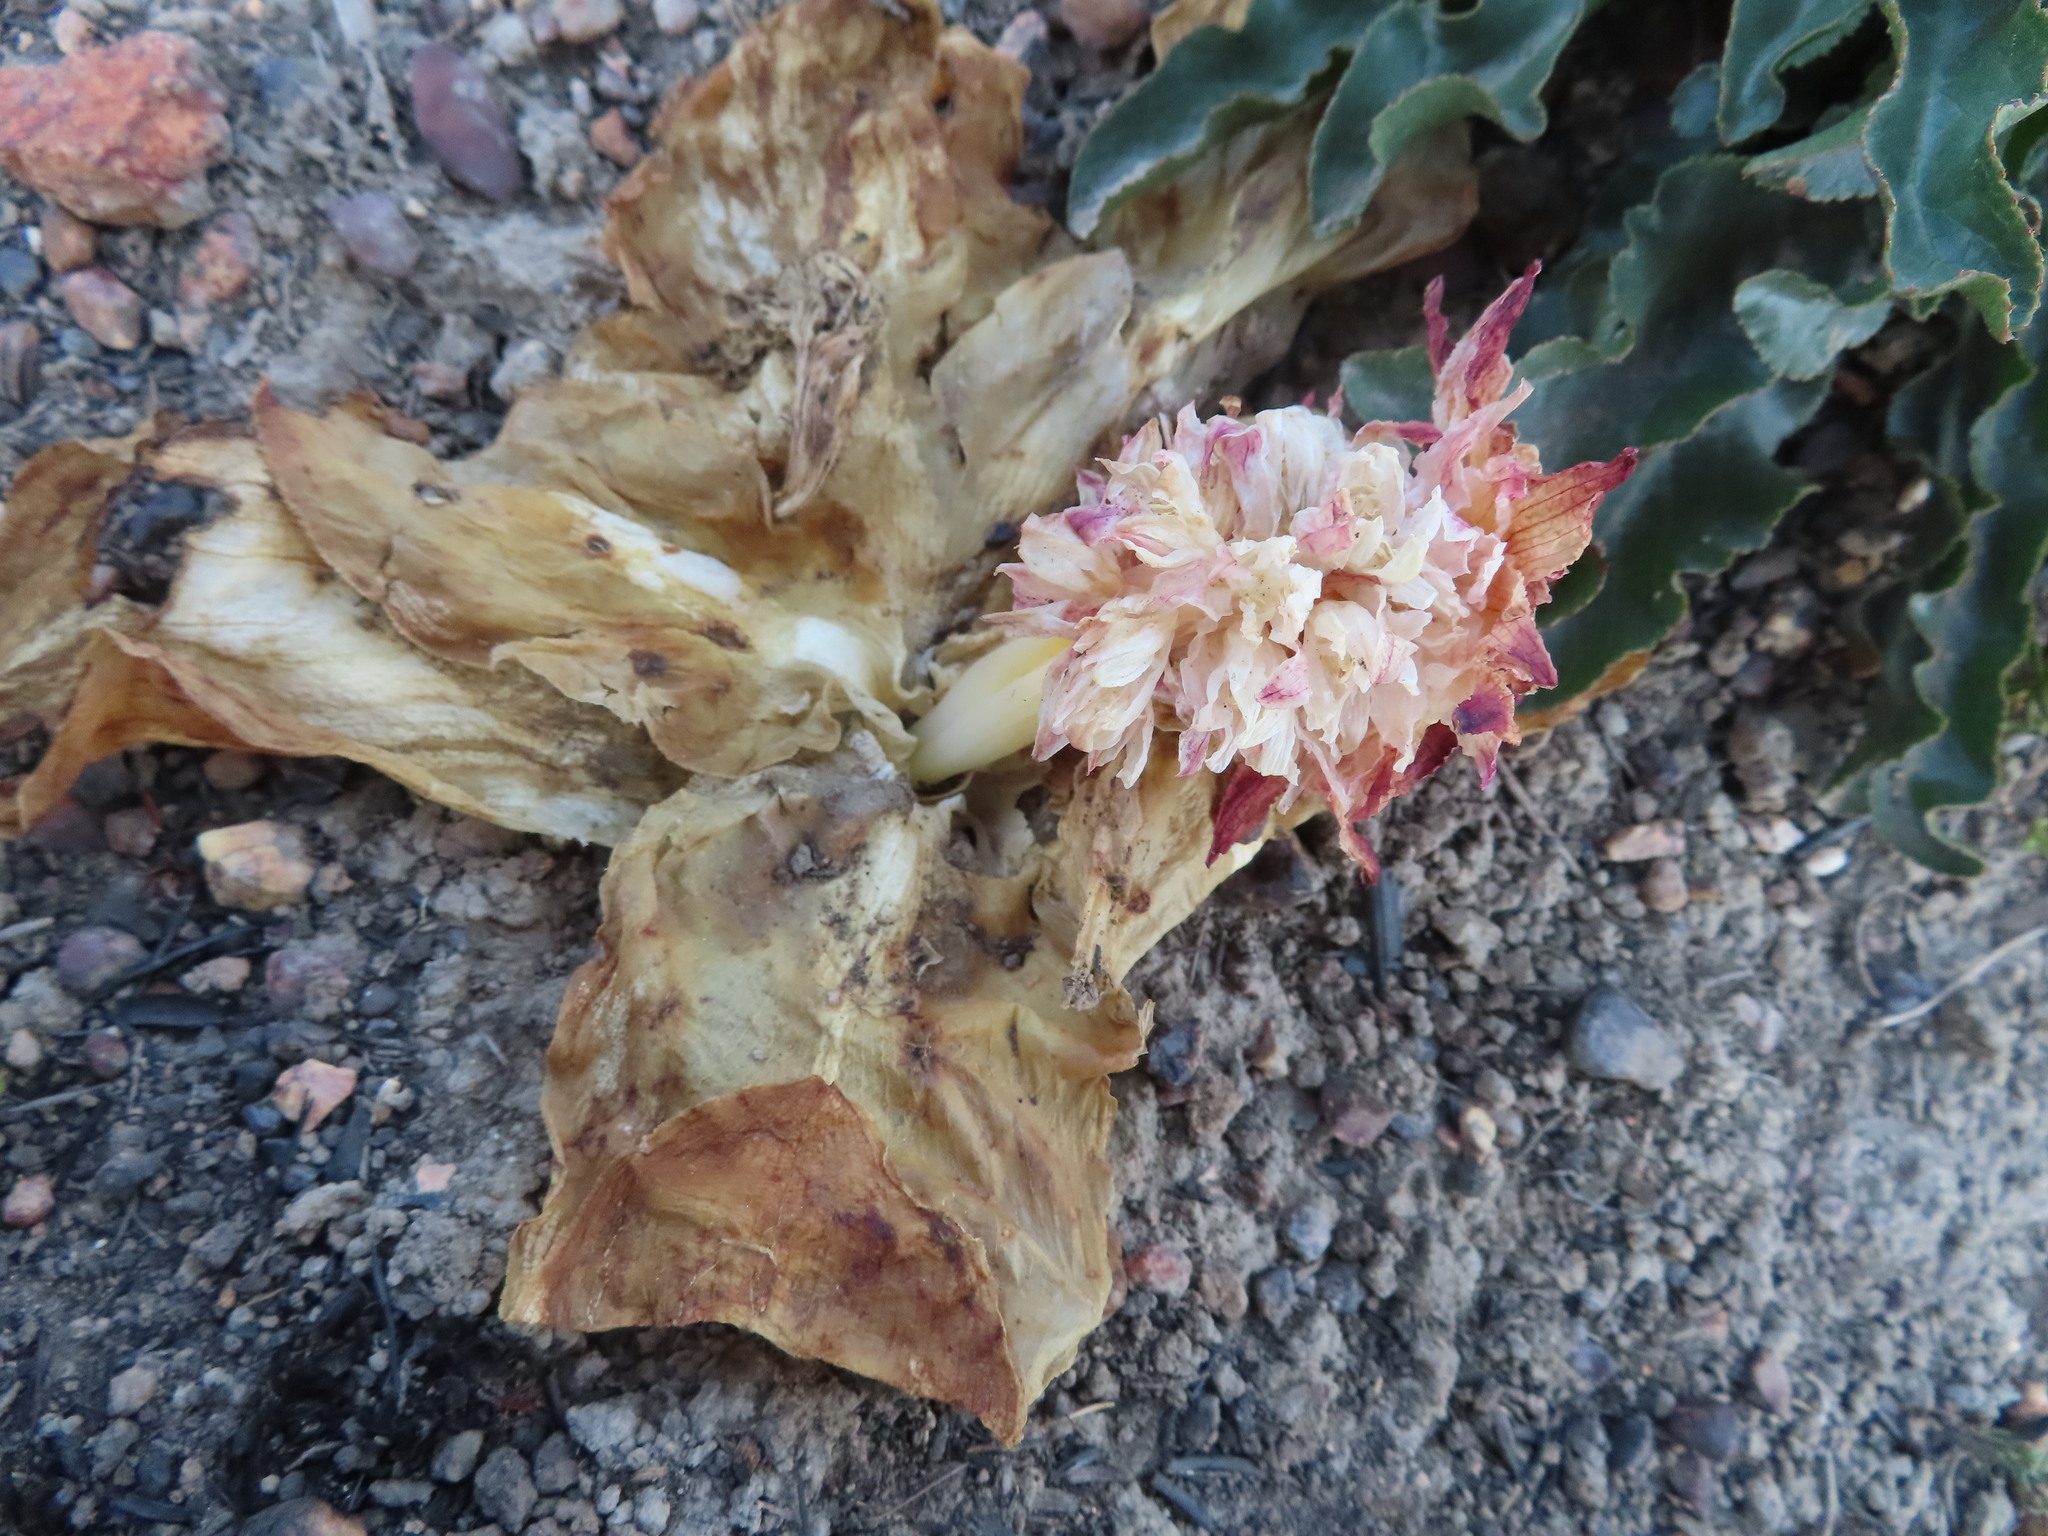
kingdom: Plantae
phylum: Tracheophyta
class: Liliopsida
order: Asparagales
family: Asparagaceae
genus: Eucomis
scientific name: Eucomis regia
